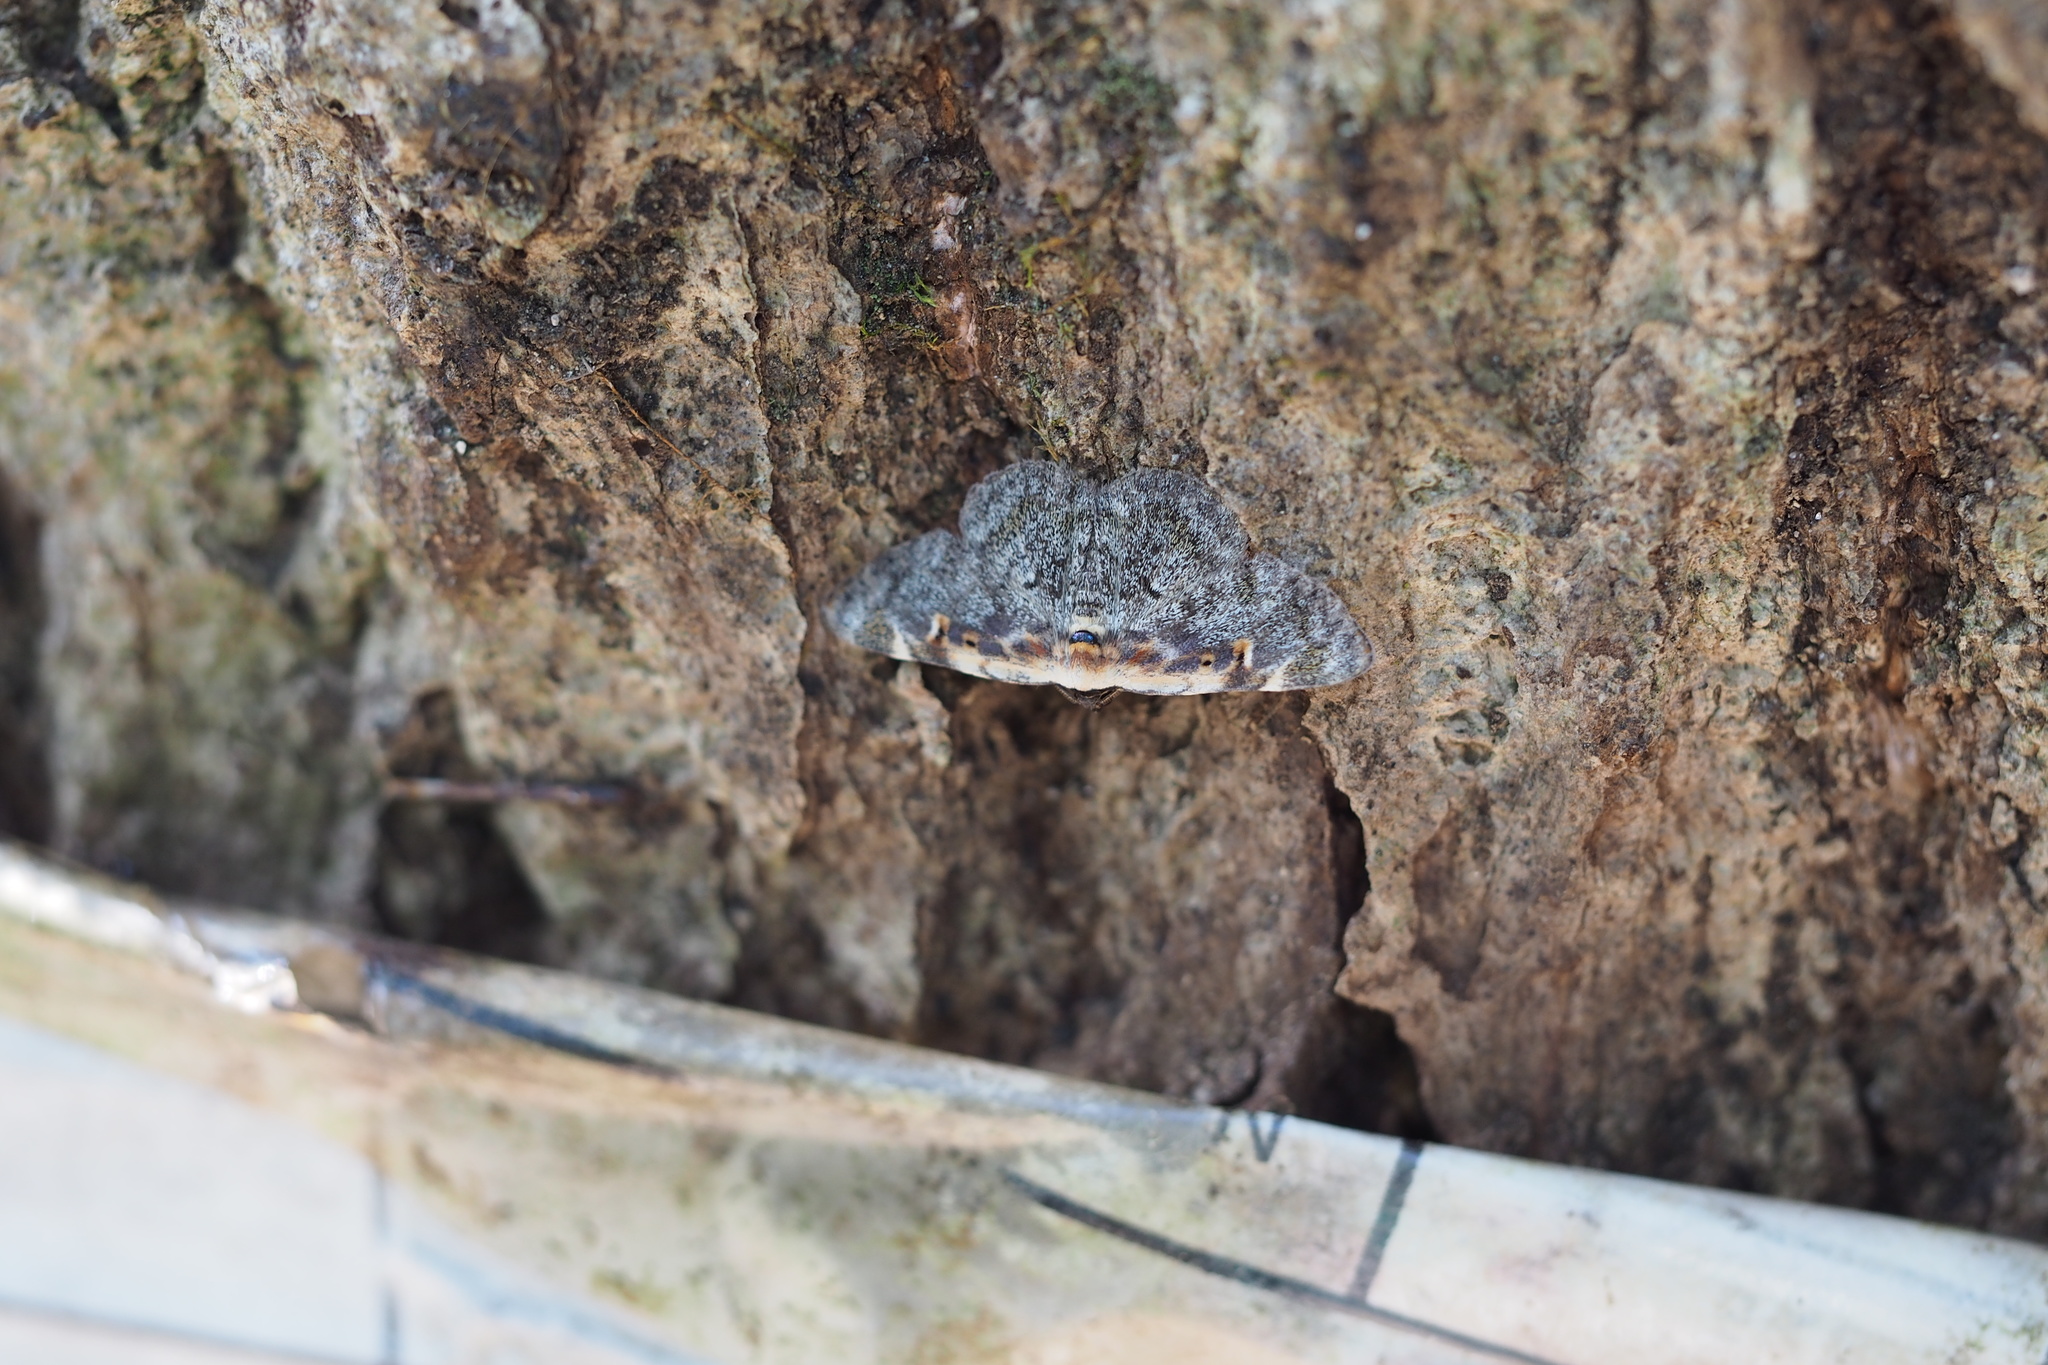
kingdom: Animalia
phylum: Arthropoda
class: Insecta
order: Lepidoptera
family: Erebidae
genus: Hypostrotia
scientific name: Hypostrotia cinerea
